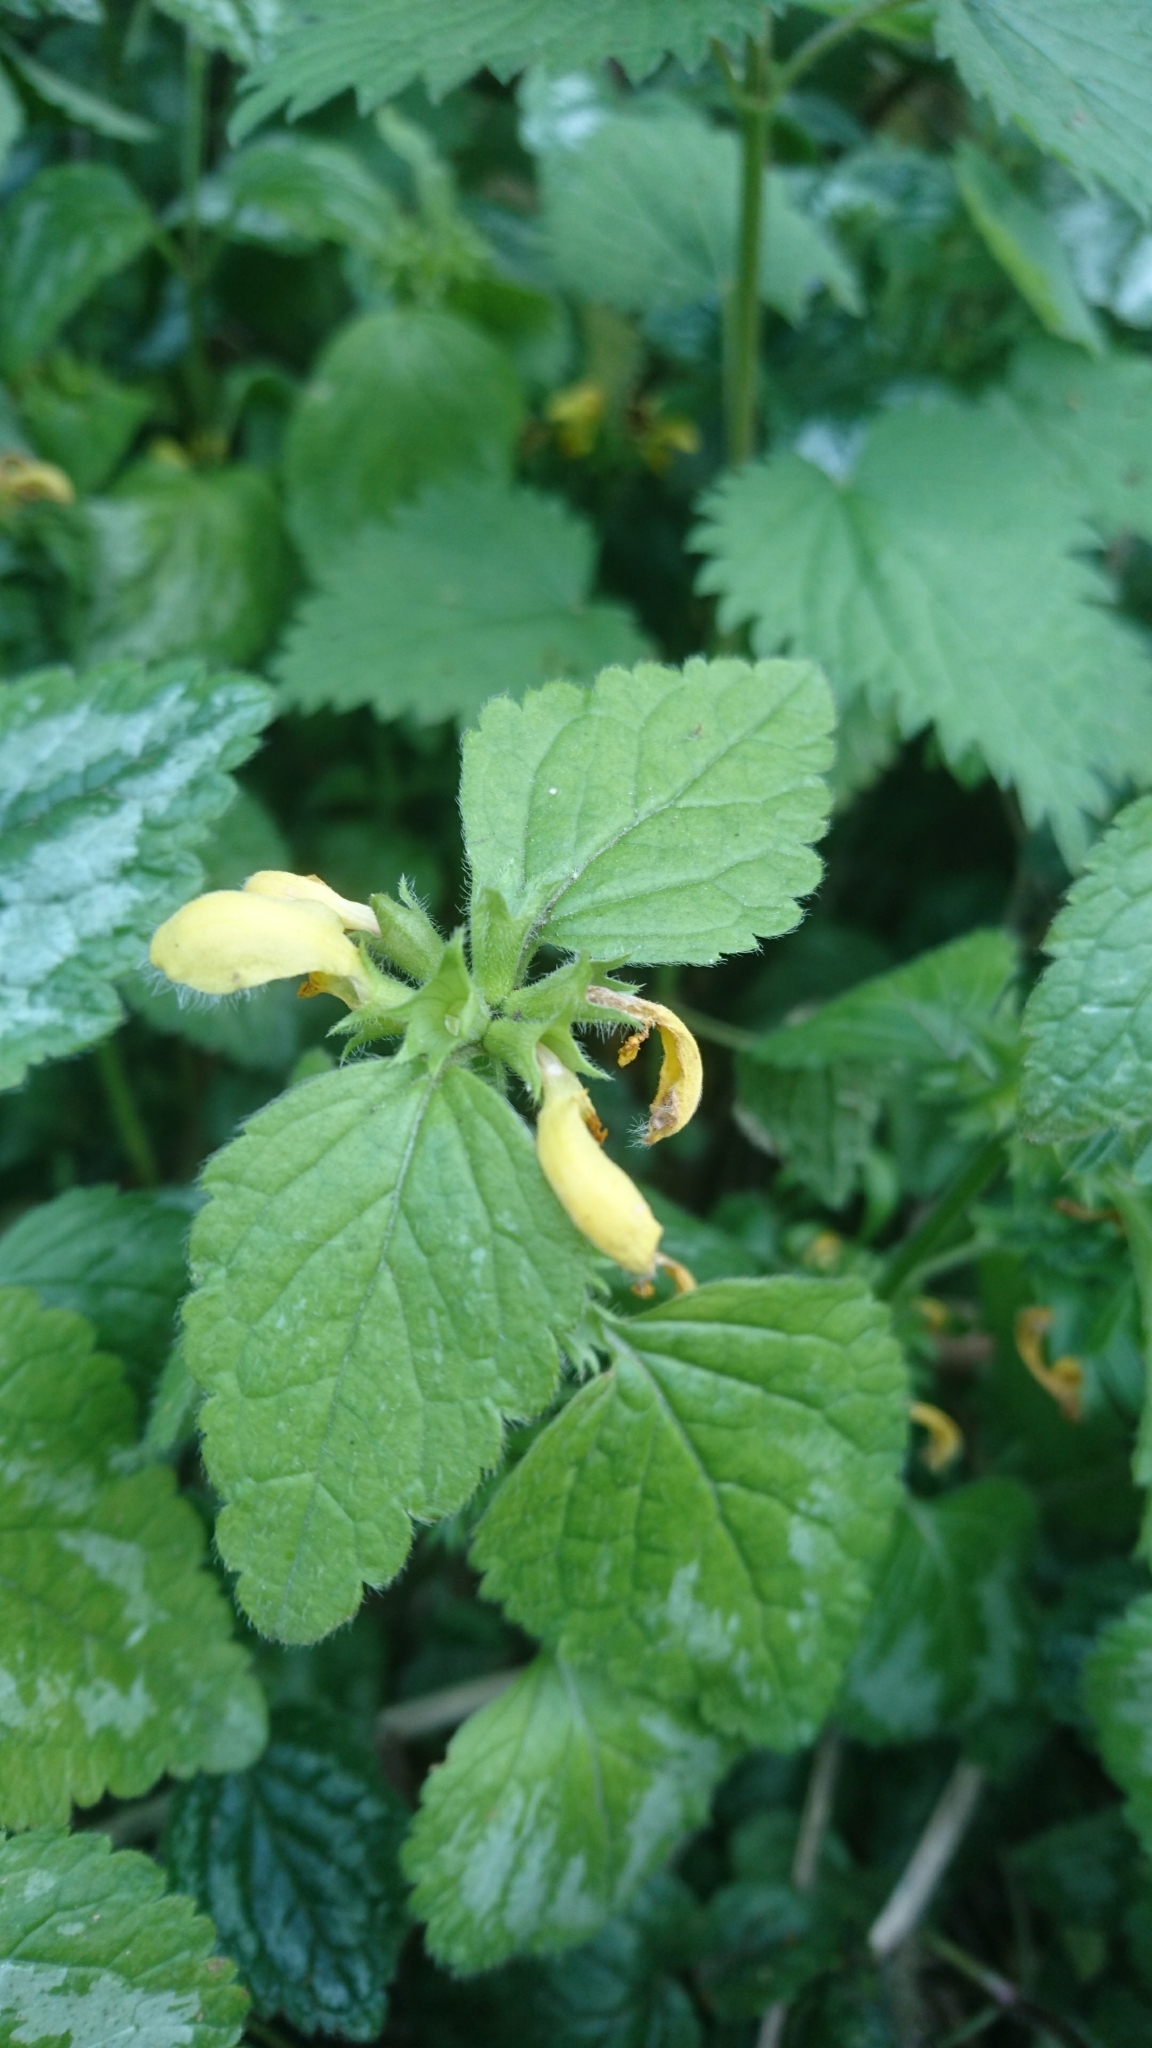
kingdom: Plantae
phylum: Tracheophyta
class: Magnoliopsida
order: Lamiales
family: Lamiaceae
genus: Lamium
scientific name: Lamium galeobdolon
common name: Yellow archangel
